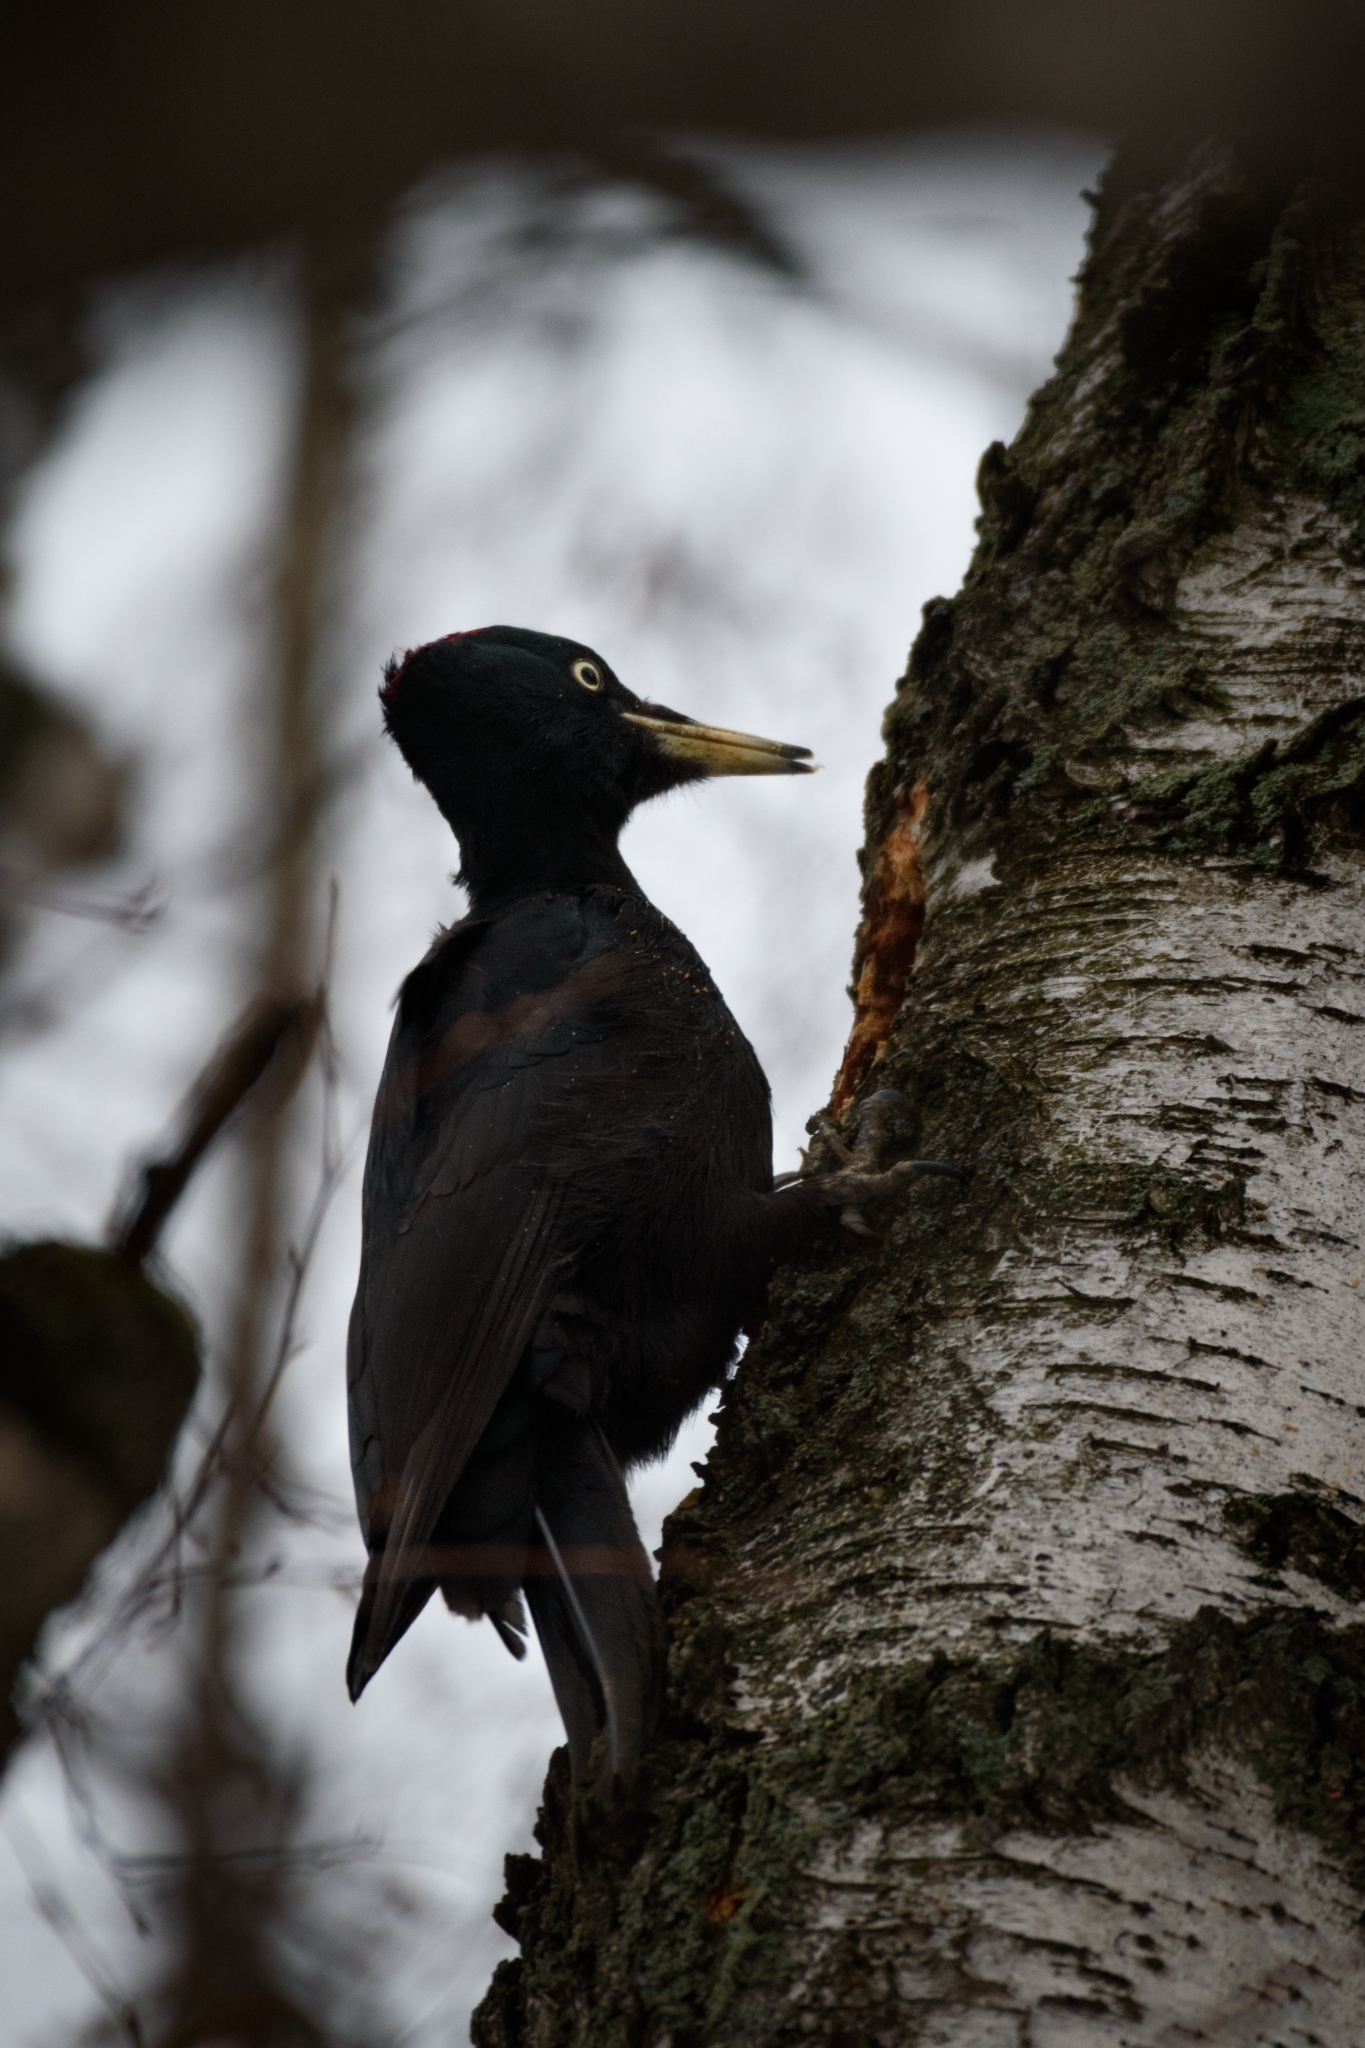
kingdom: Animalia
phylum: Chordata
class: Aves
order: Piciformes
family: Picidae
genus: Dryocopus
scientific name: Dryocopus martius
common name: Black woodpecker
